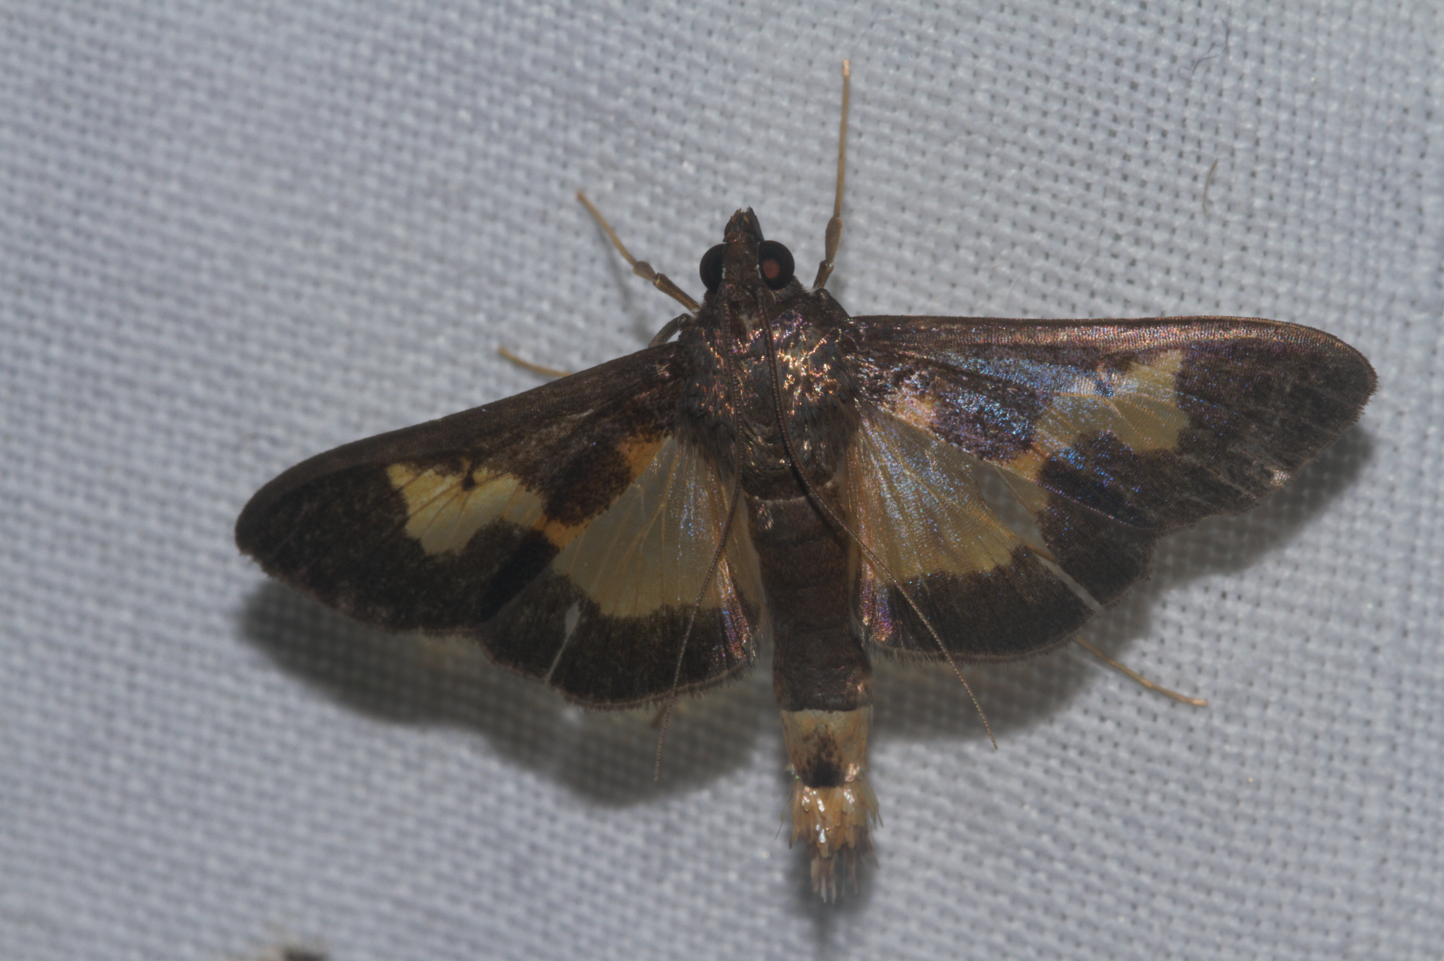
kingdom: Animalia
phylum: Arthropoda
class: Insecta
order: Lepidoptera
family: Crambidae
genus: Cryptographis
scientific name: Cryptographis nitidalis
